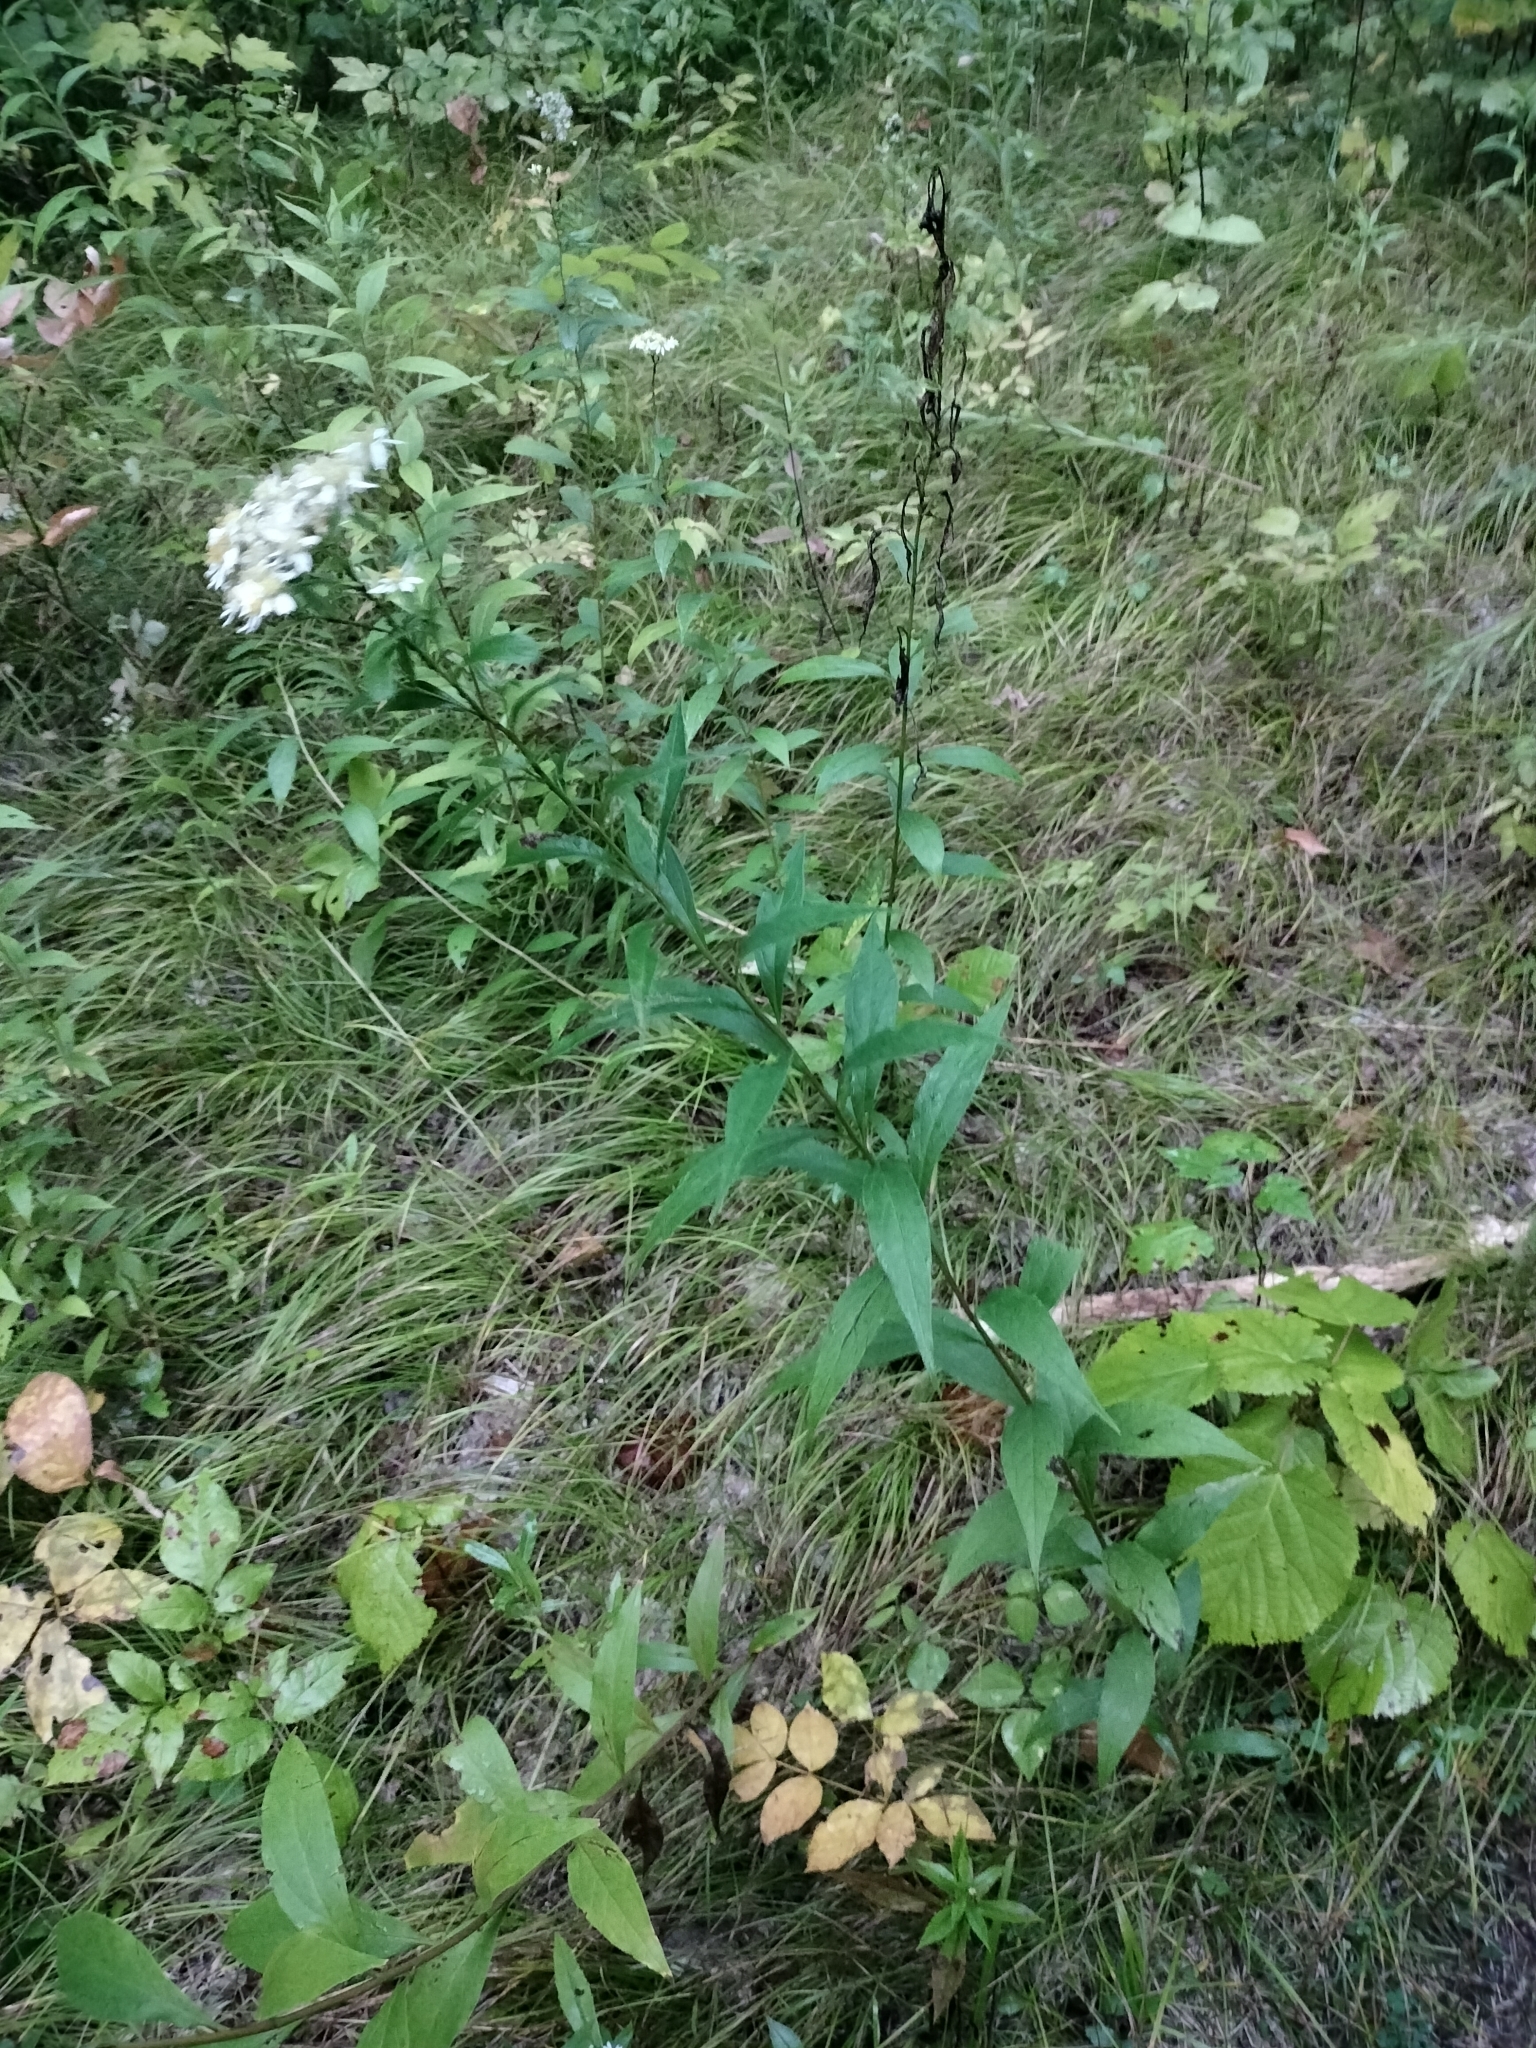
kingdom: Plantae
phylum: Tracheophyta
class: Magnoliopsida
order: Asterales
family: Asteraceae
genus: Doellingeria
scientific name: Doellingeria umbellata
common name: Flat-top white aster
